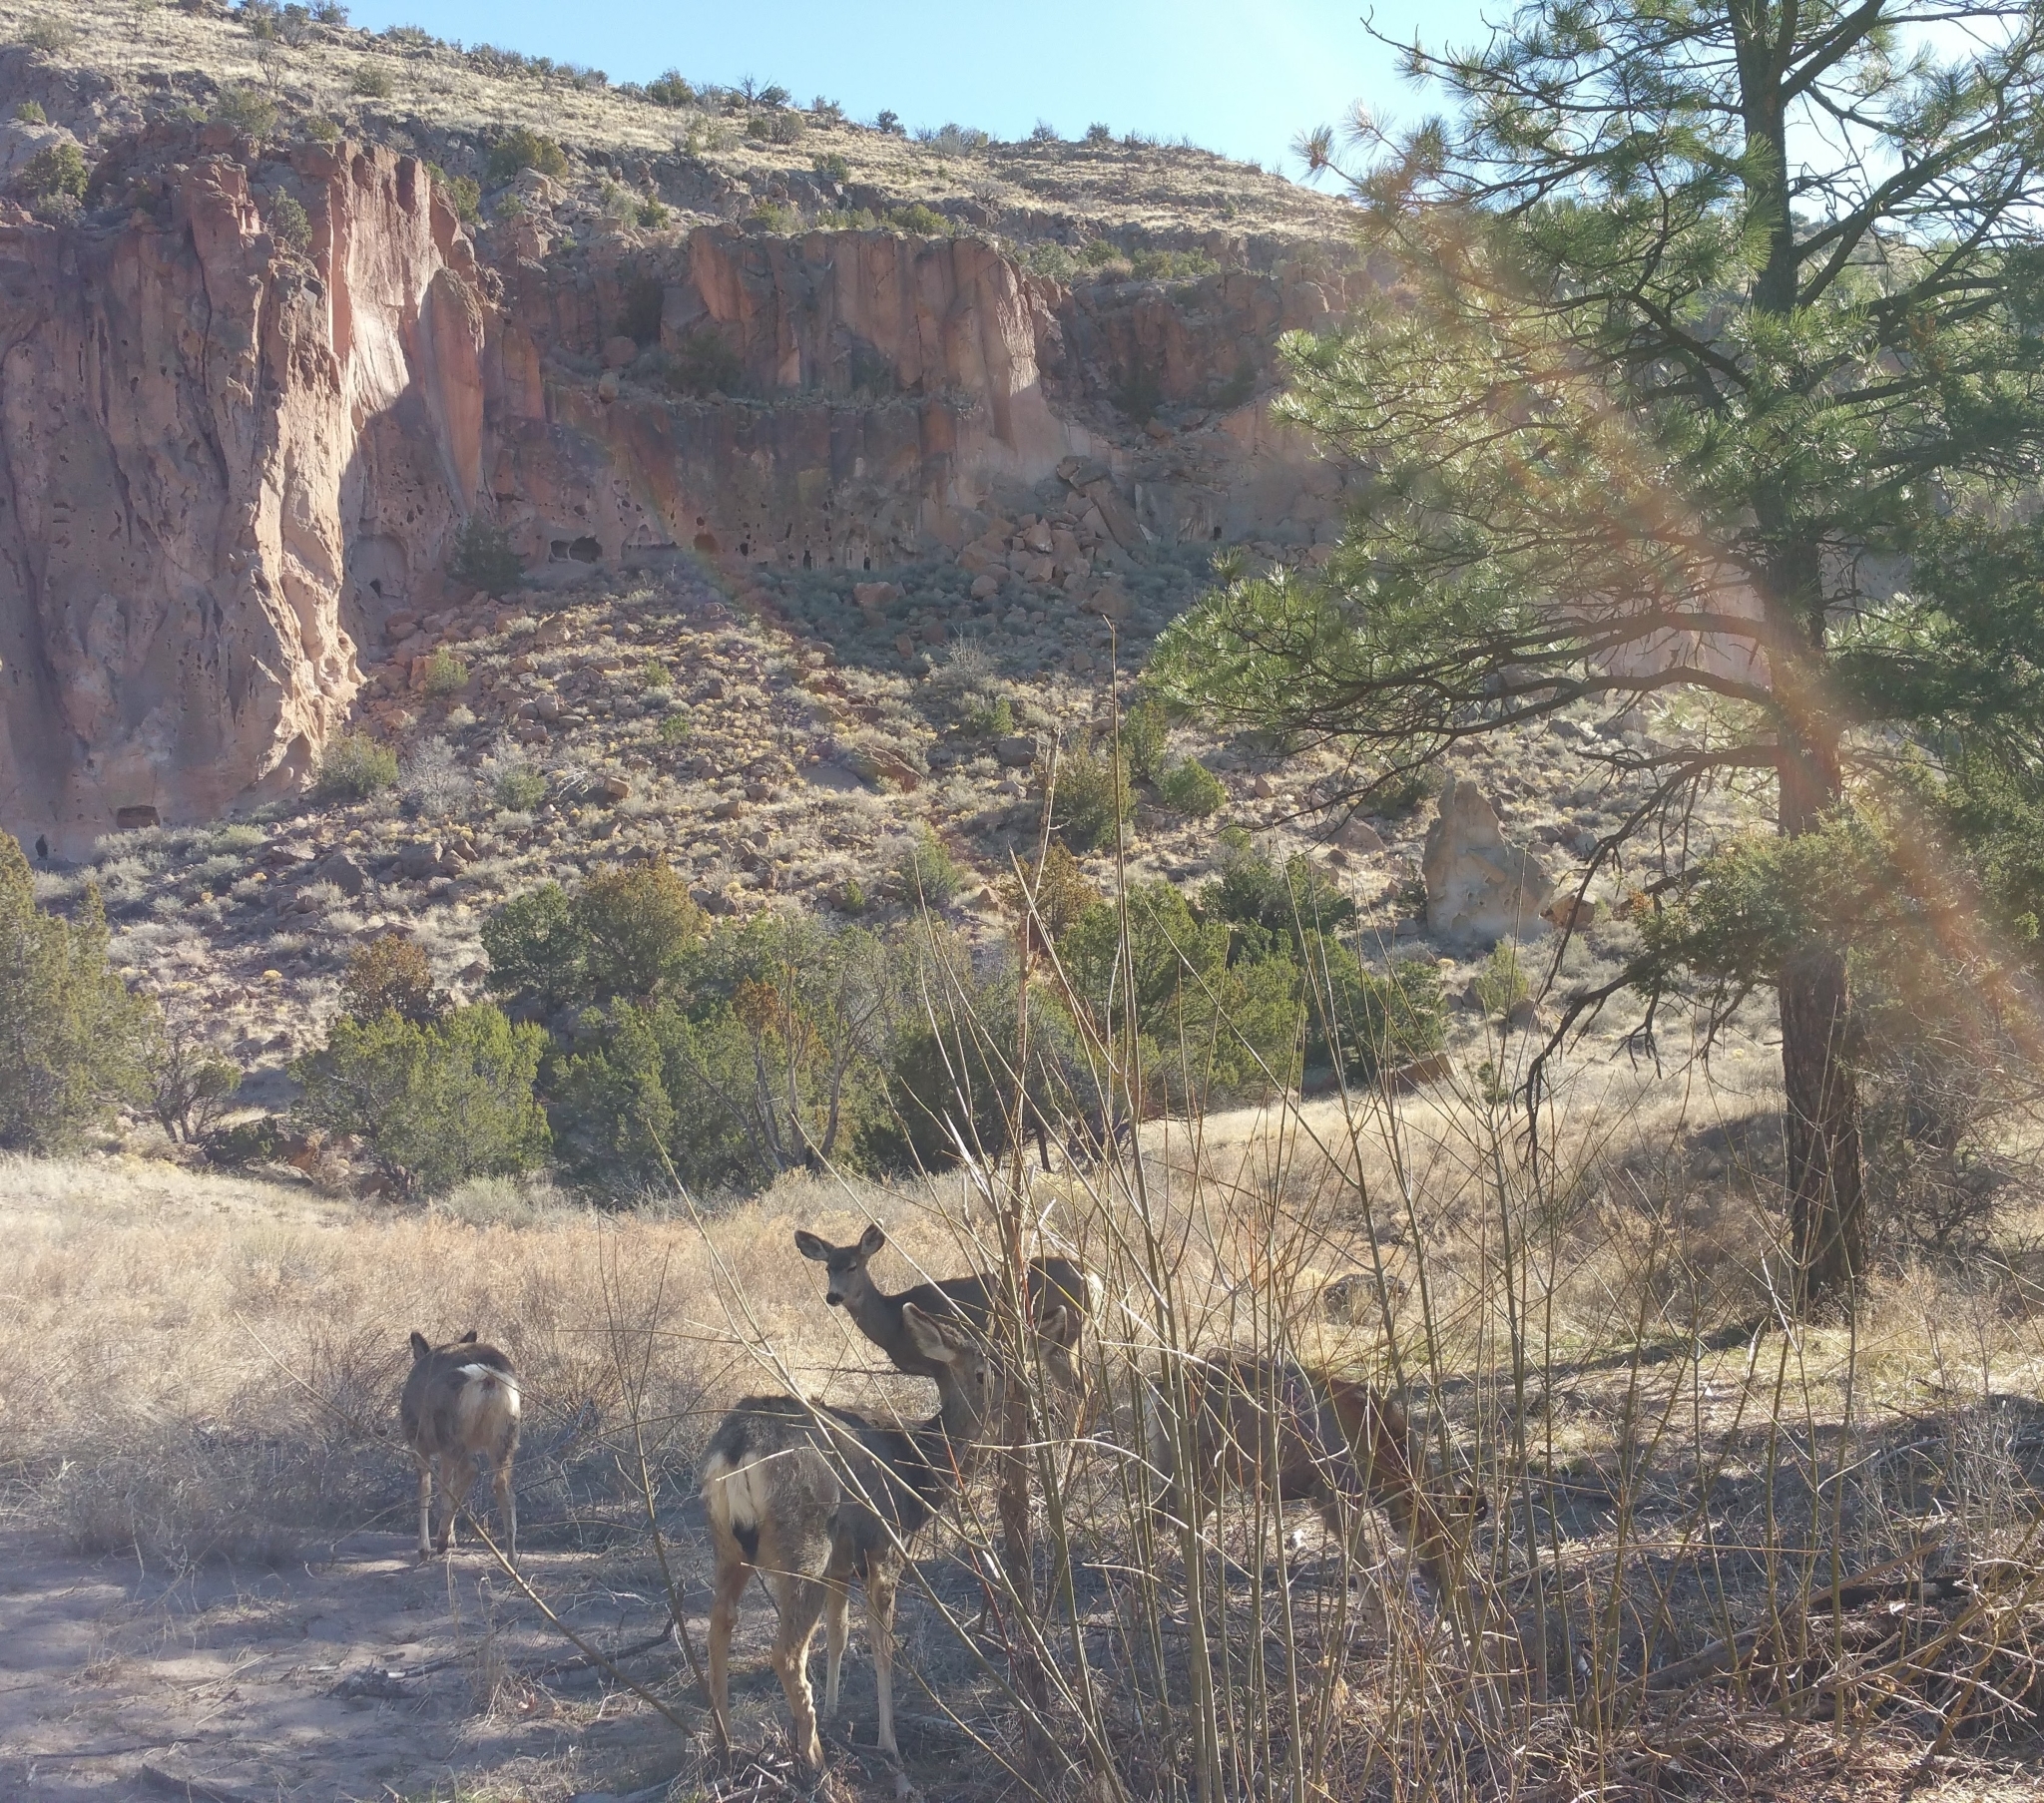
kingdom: Animalia
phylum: Chordata
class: Mammalia
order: Artiodactyla
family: Cervidae
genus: Odocoileus
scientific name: Odocoileus hemionus
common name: Mule deer
